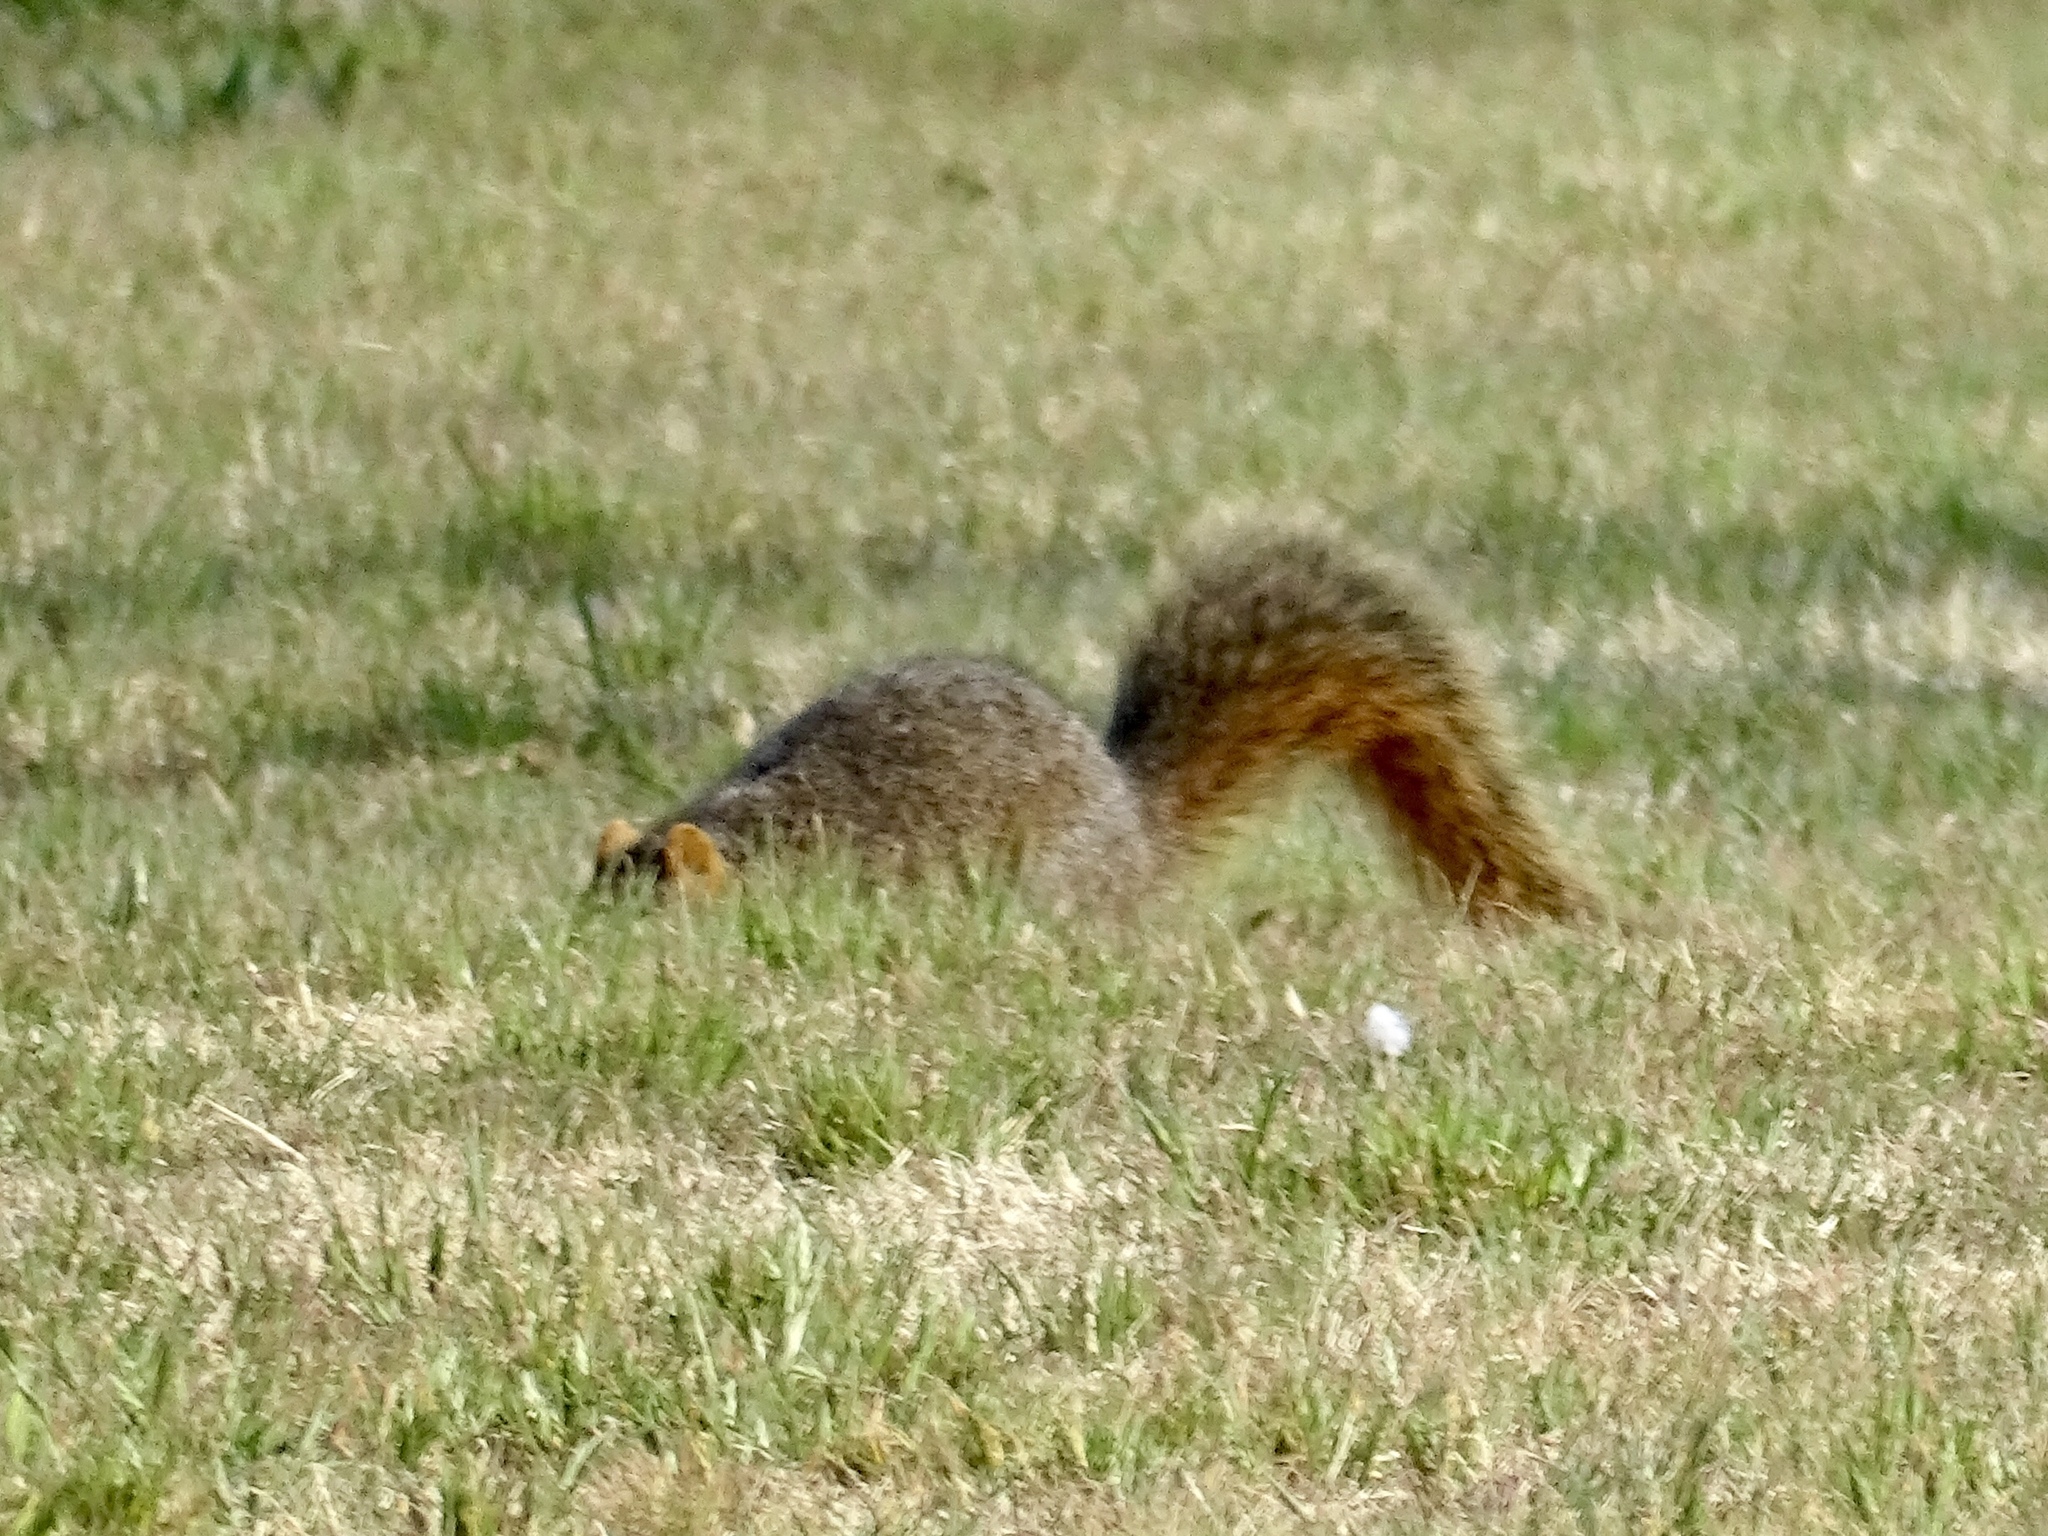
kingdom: Animalia
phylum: Chordata
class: Mammalia
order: Rodentia
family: Sciuridae
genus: Sciurus
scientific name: Sciurus niger
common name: Fox squirrel
